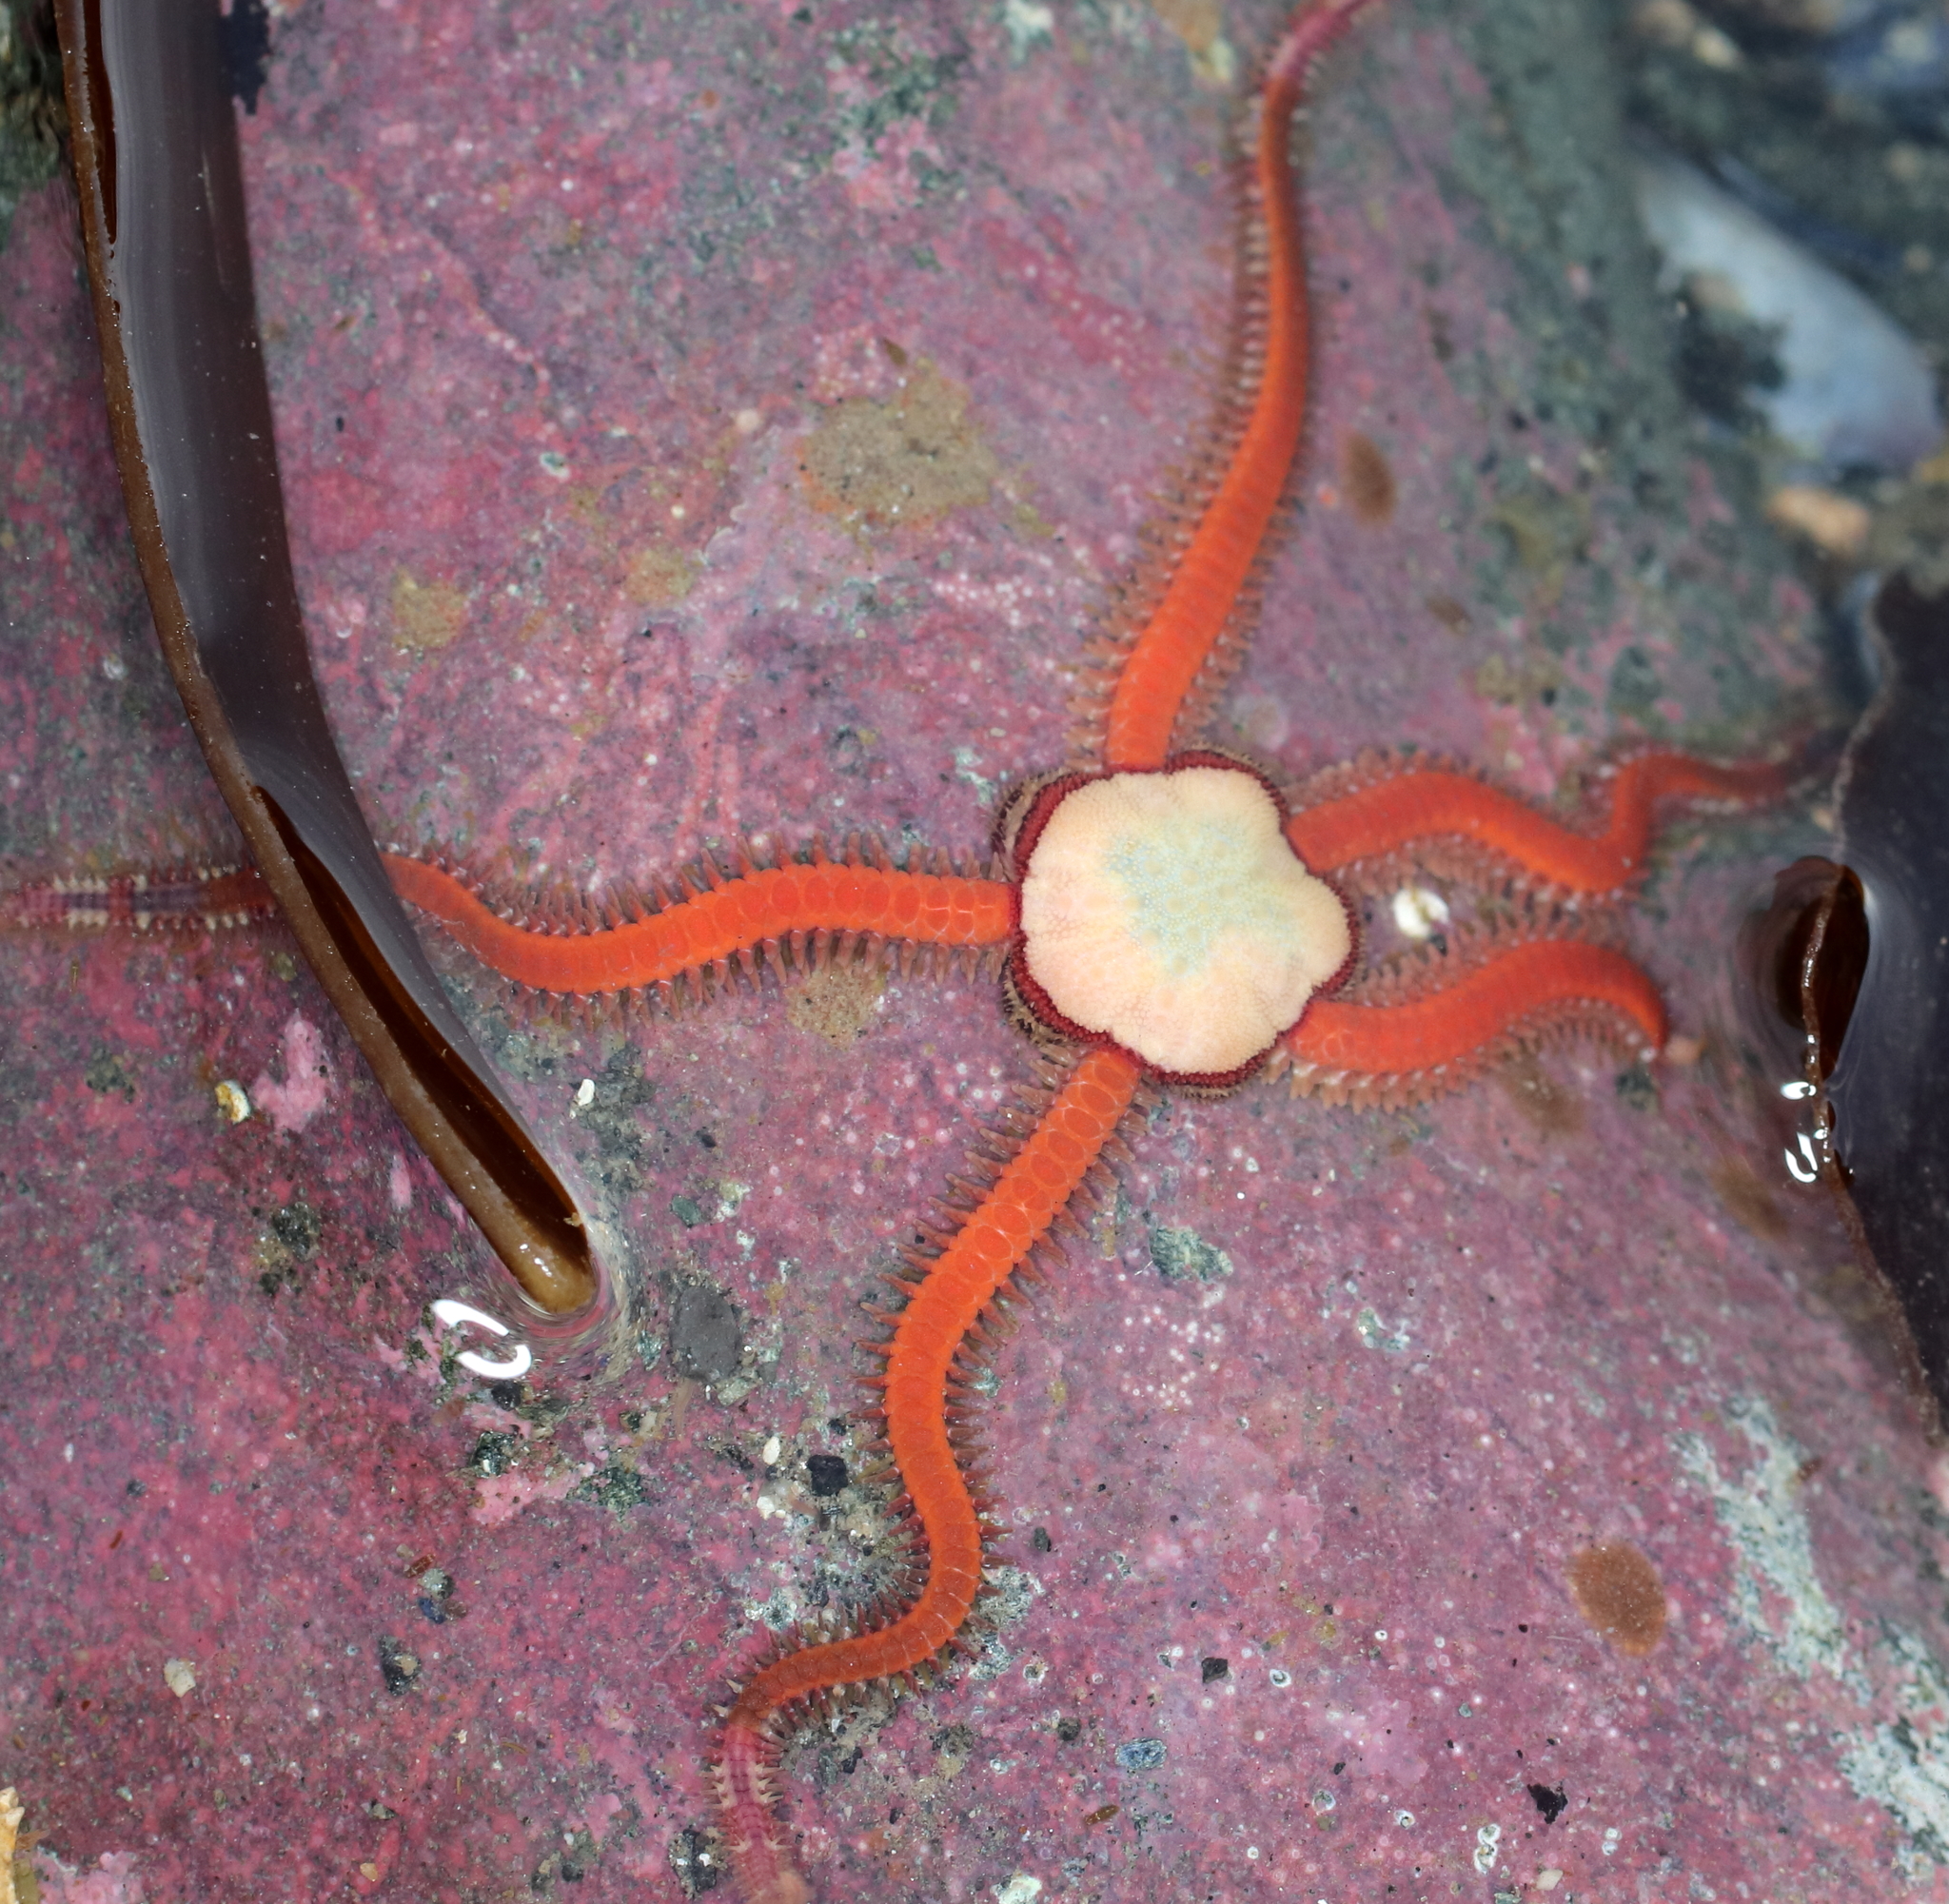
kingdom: Animalia
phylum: Echinodermata
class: Ophiuroidea
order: Amphilepidida
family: Ophiopholidae
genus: Ophiopholis
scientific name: Ophiopholis kennerlyi
